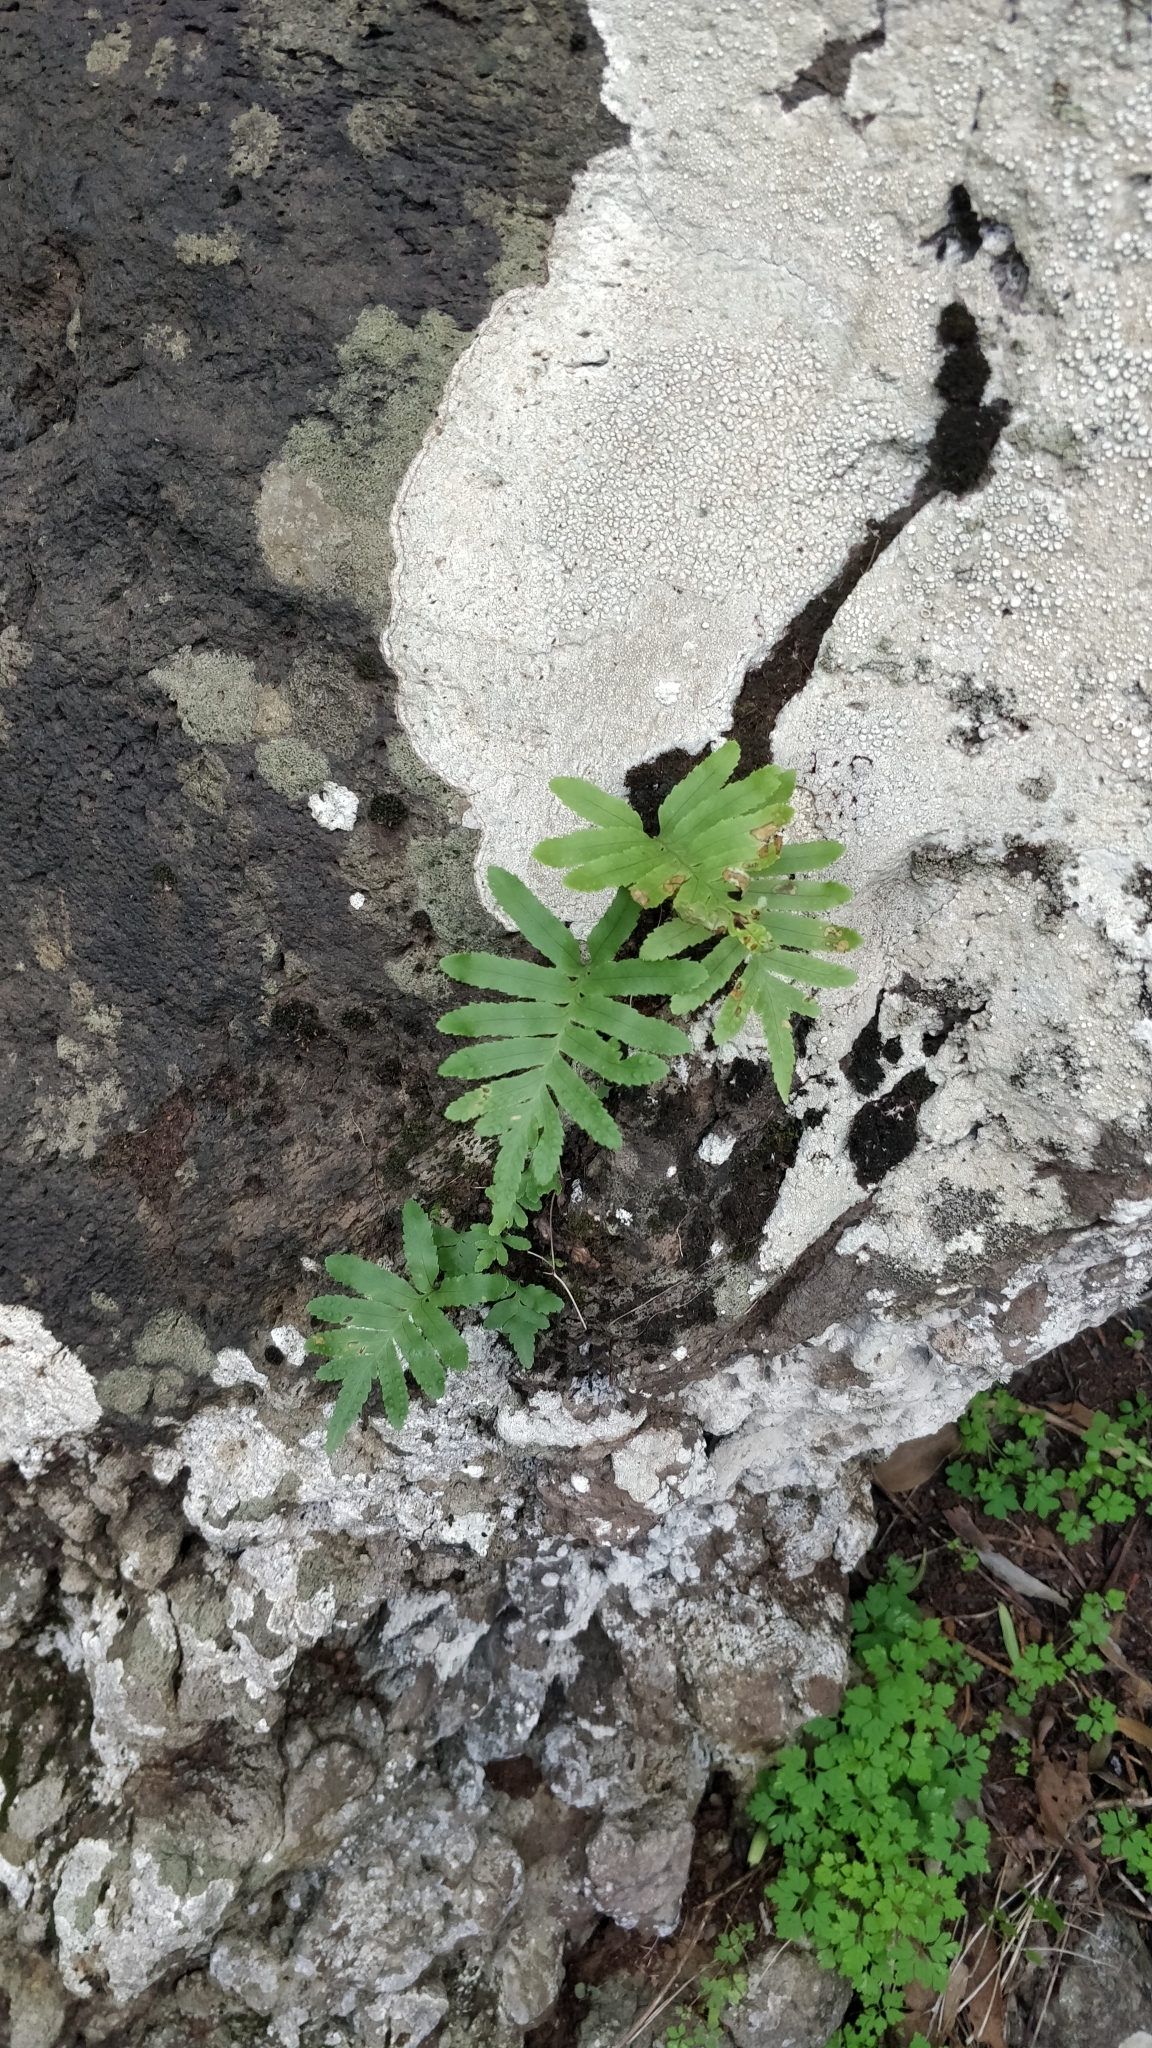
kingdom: Plantae
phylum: Tracheophyta
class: Polypodiopsida
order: Polypodiales
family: Polypodiaceae
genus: Polypodium
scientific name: Polypodium macaronesicum
